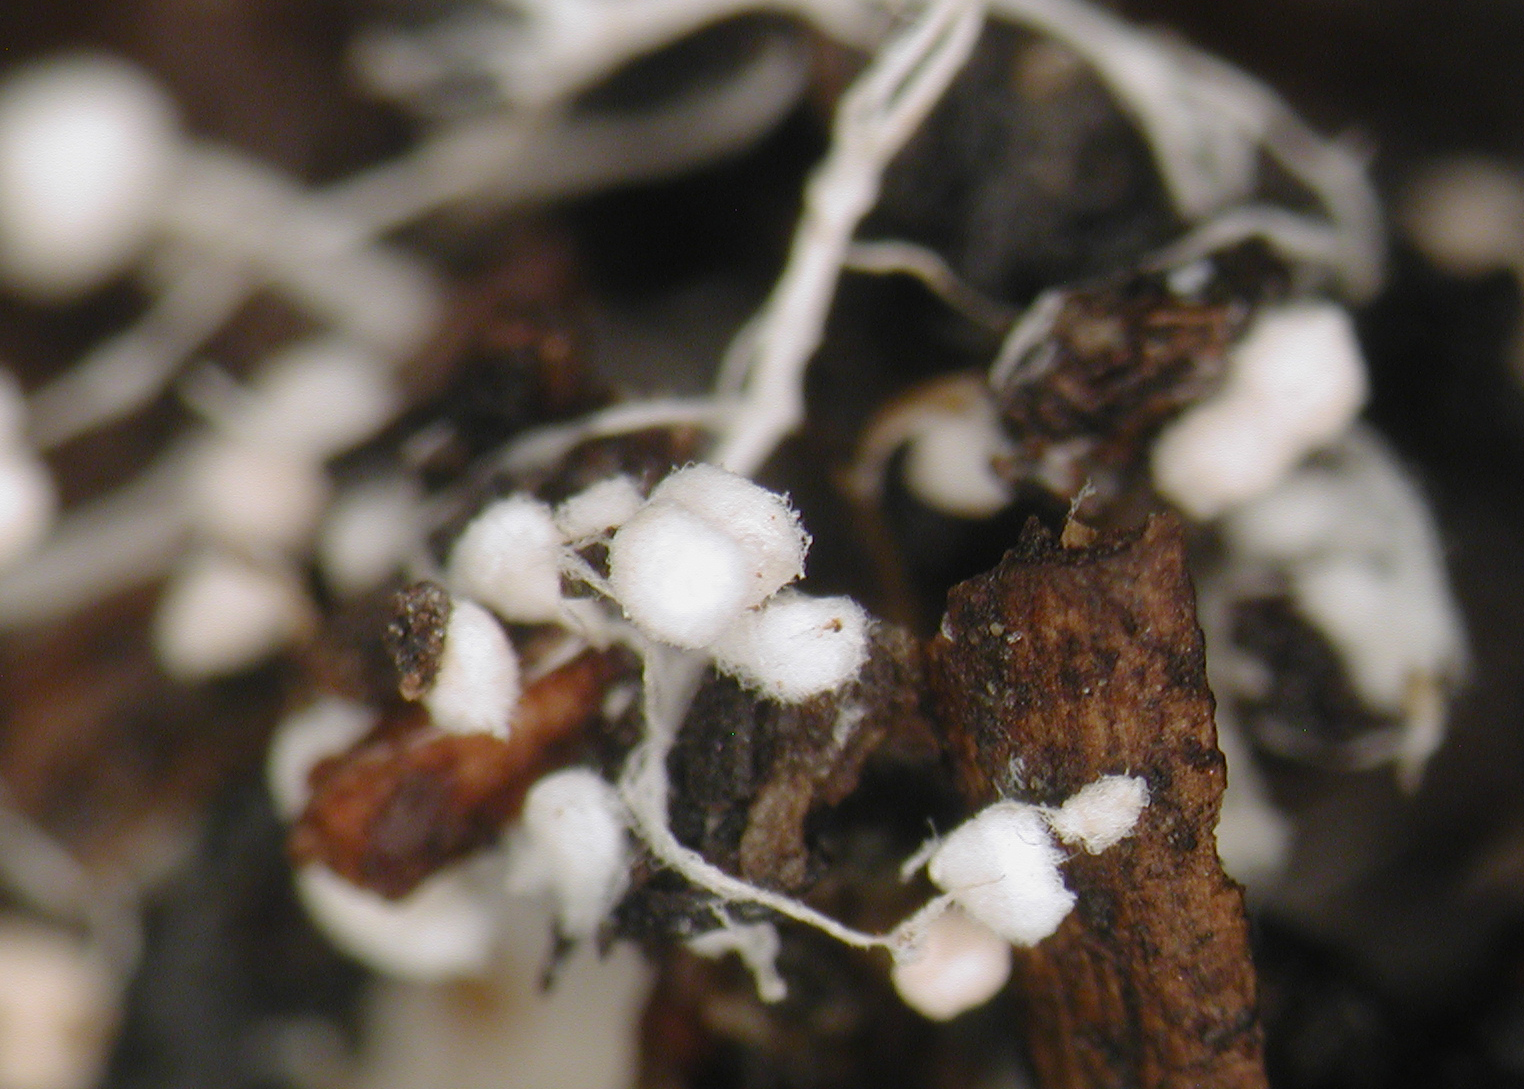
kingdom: Fungi
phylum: Basidiomycota
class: Agaricomycetes
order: Agaricales
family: Agaricaceae
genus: Leucocoprinus
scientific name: Leucocoprinus cepistipes
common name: Onion-stalk parasol
